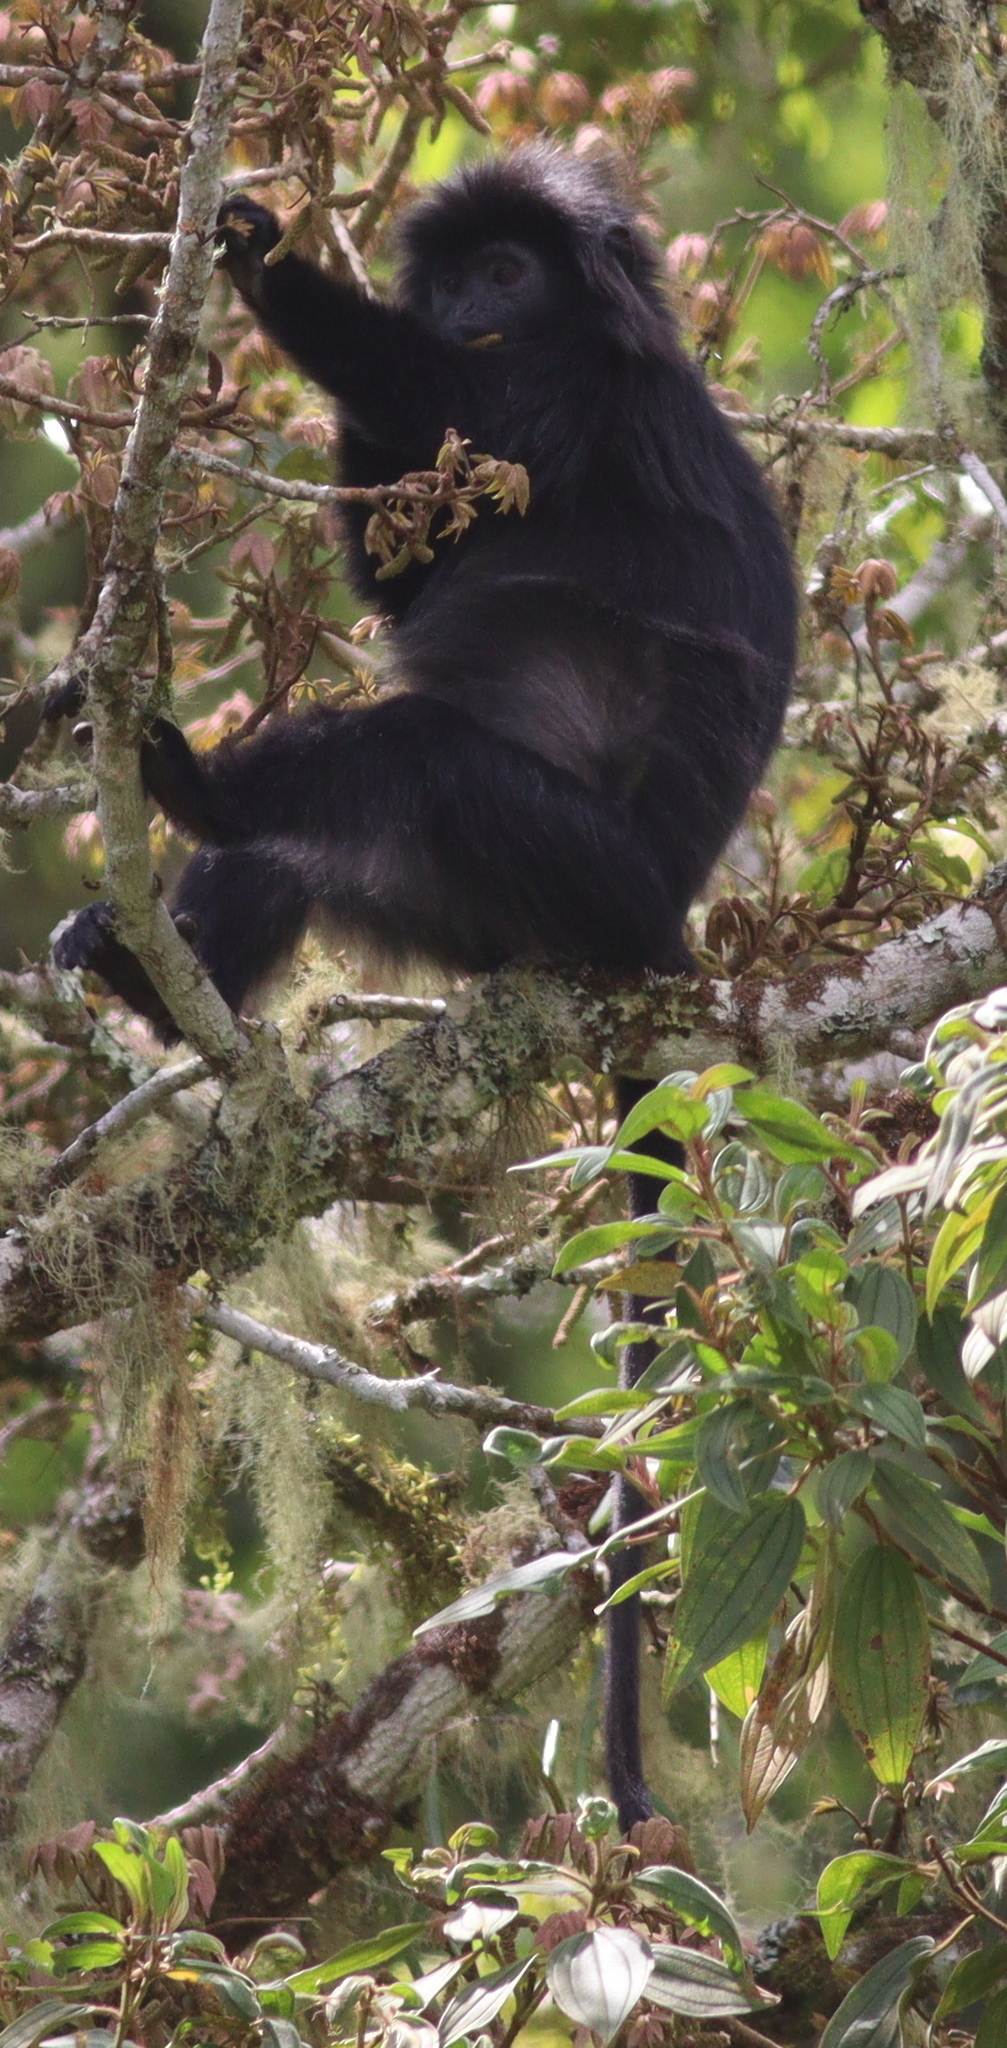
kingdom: Animalia
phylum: Chordata
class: Mammalia
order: Primates
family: Cercopithecidae
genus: Trachypithecus
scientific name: Trachypithecus auratus
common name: Javan lutung
